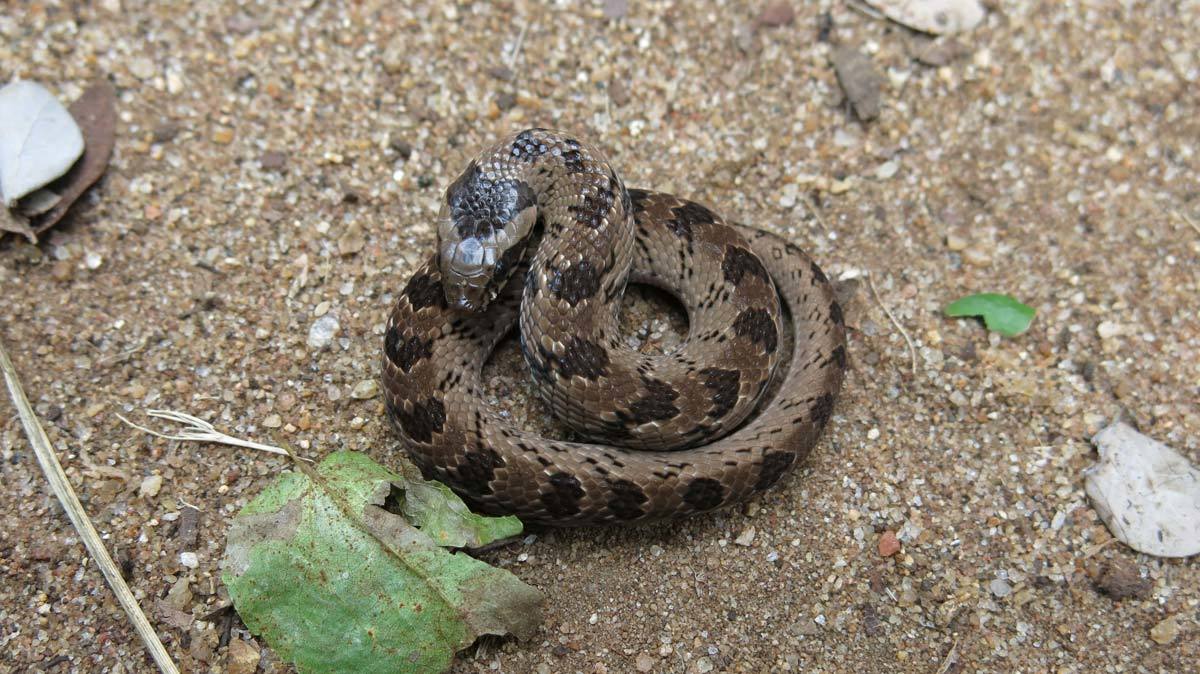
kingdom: Animalia
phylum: Chordata
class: Squamata
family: Viperidae
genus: Causus
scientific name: Causus defilippii
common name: Snouted night adder
